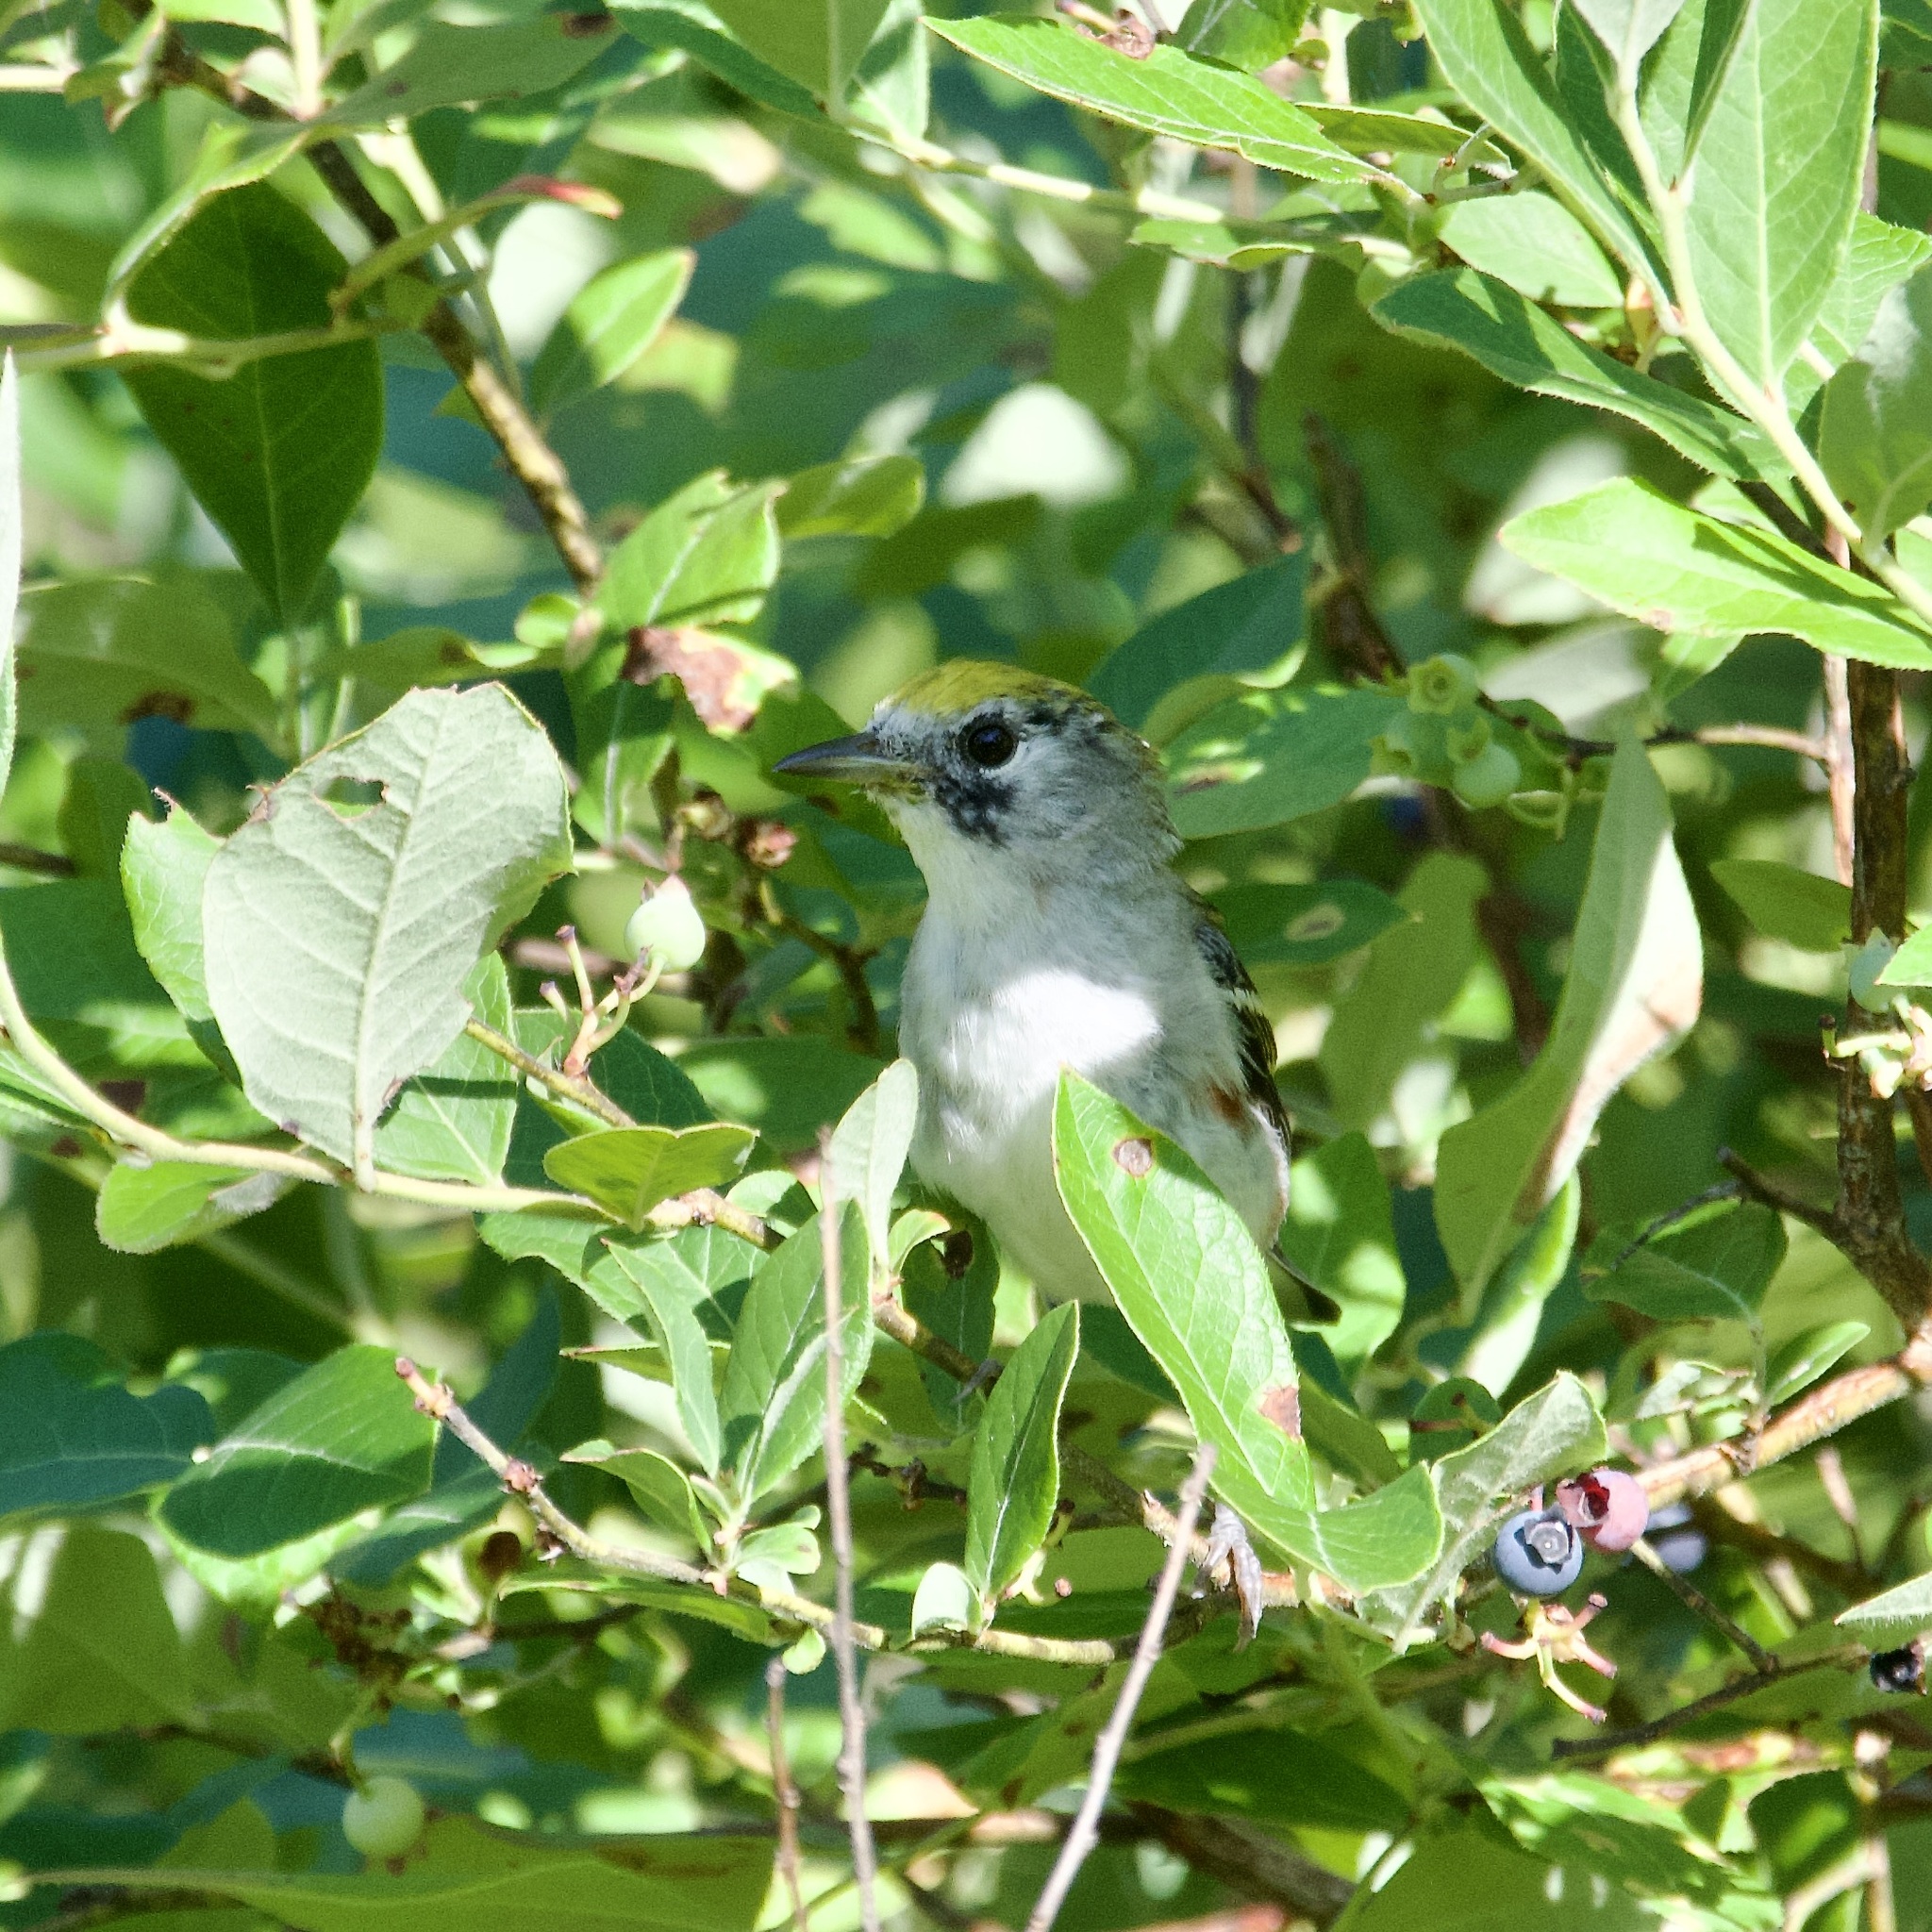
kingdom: Animalia
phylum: Chordata
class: Aves
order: Passeriformes
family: Parulidae
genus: Setophaga
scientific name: Setophaga pensylvanica
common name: Chestnut-sided warbler
